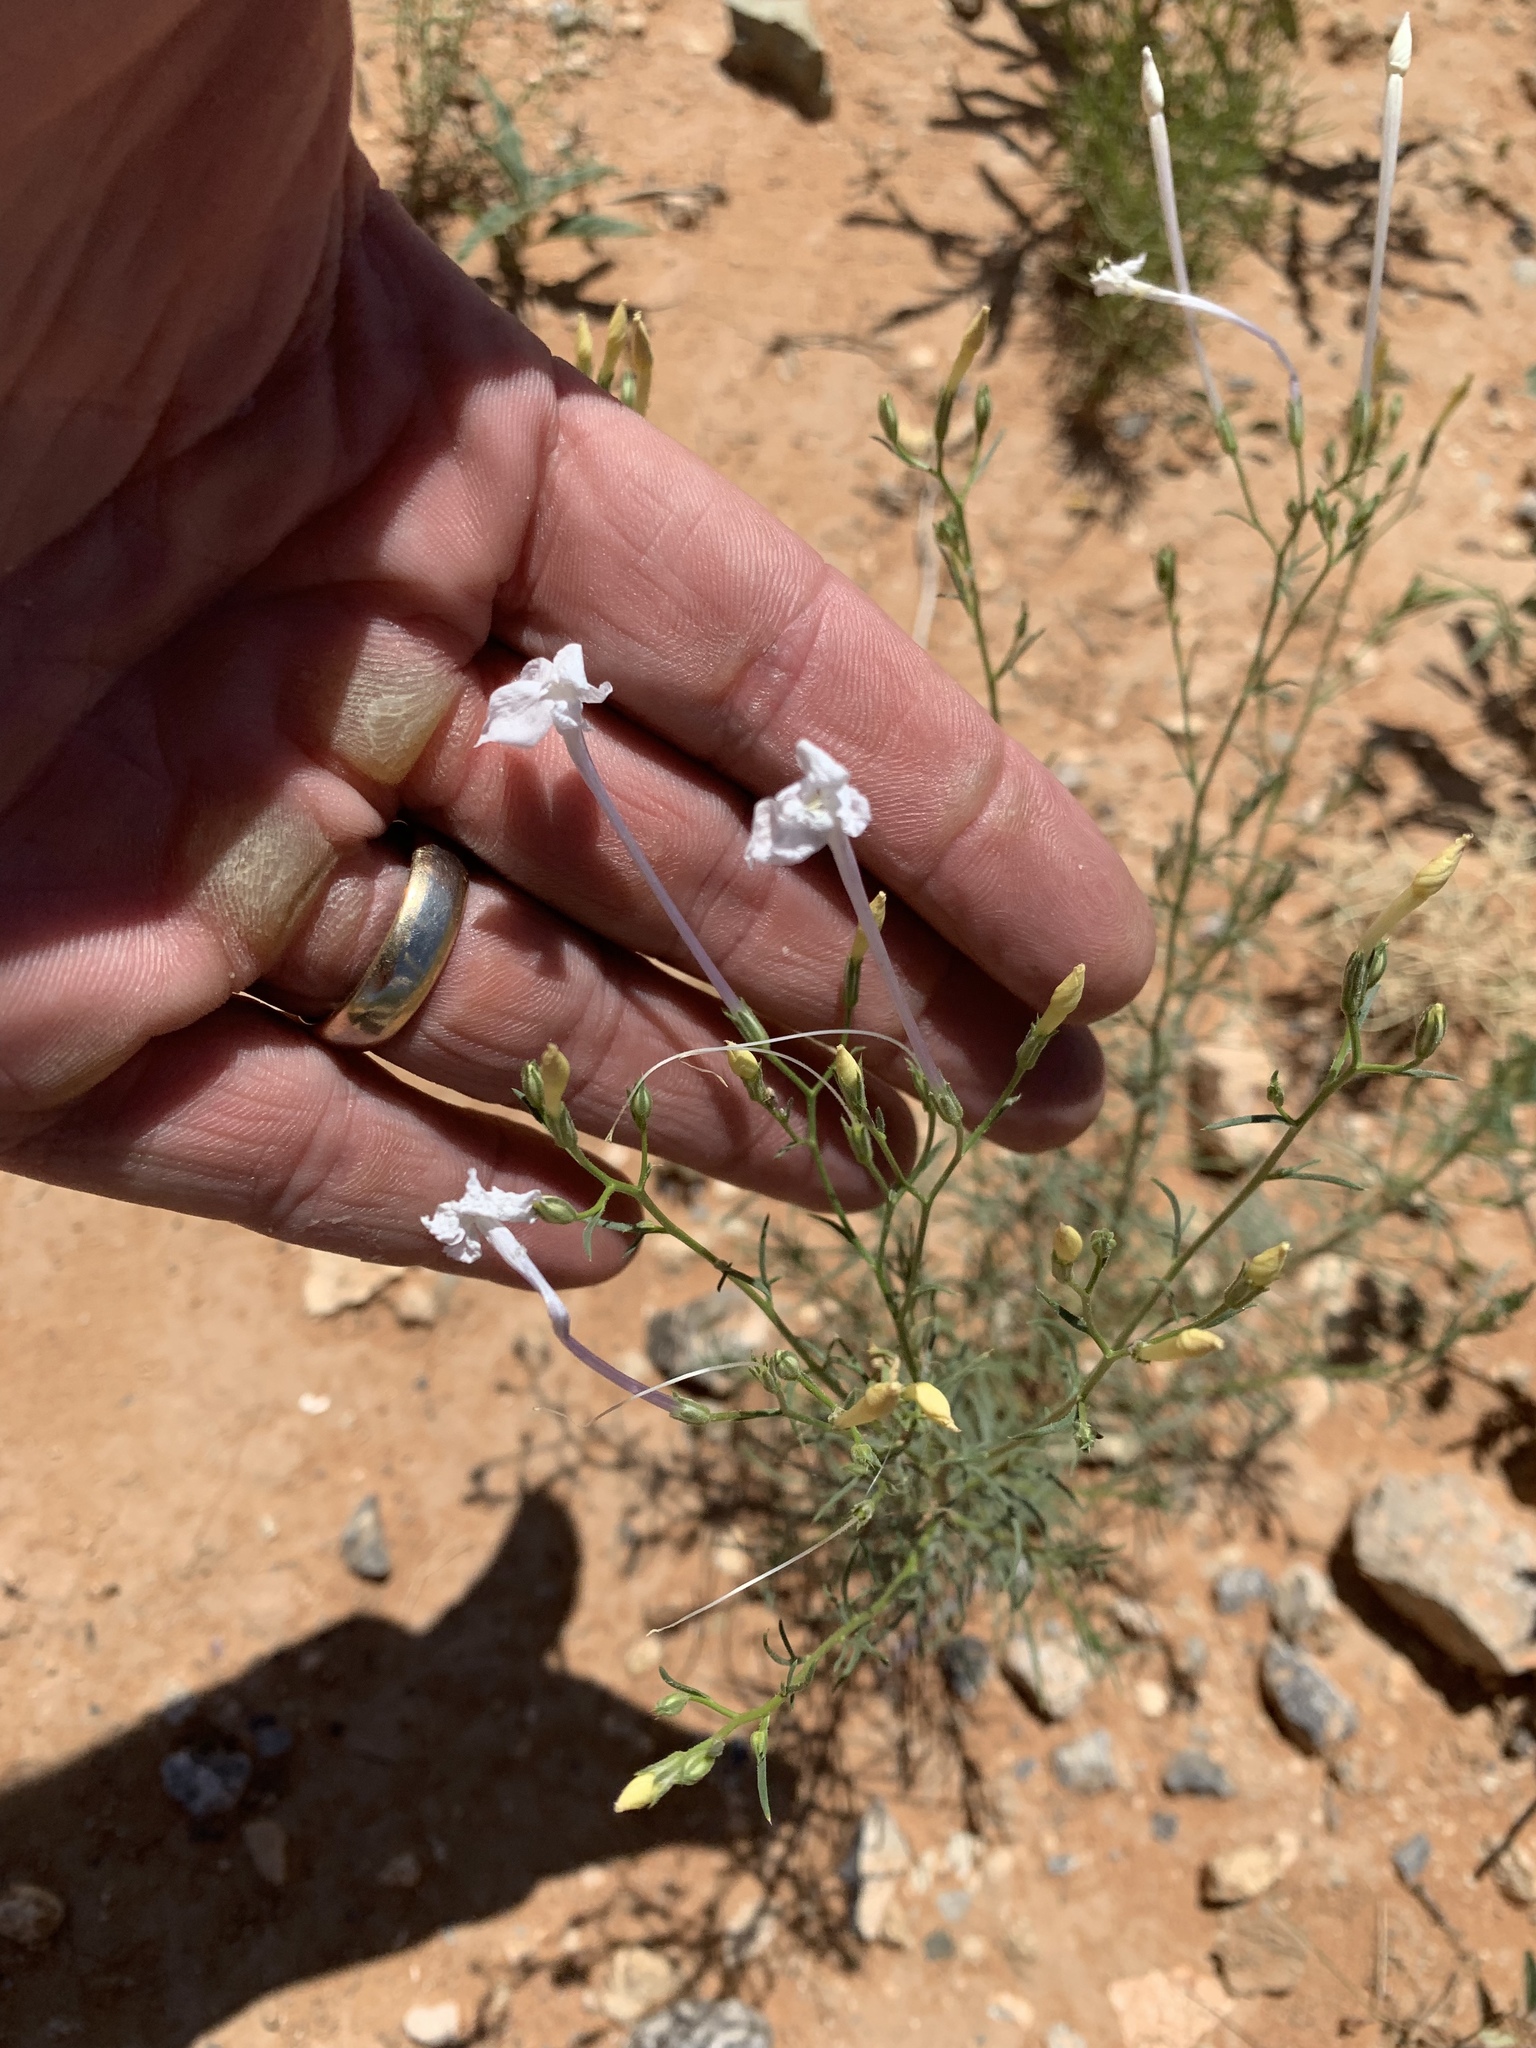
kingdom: Plantae
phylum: Tracheophyta
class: Magnoliopsida
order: Ericales
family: Polemoniaceae
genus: Ipomopsis
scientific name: Ipomopsis longiflora
